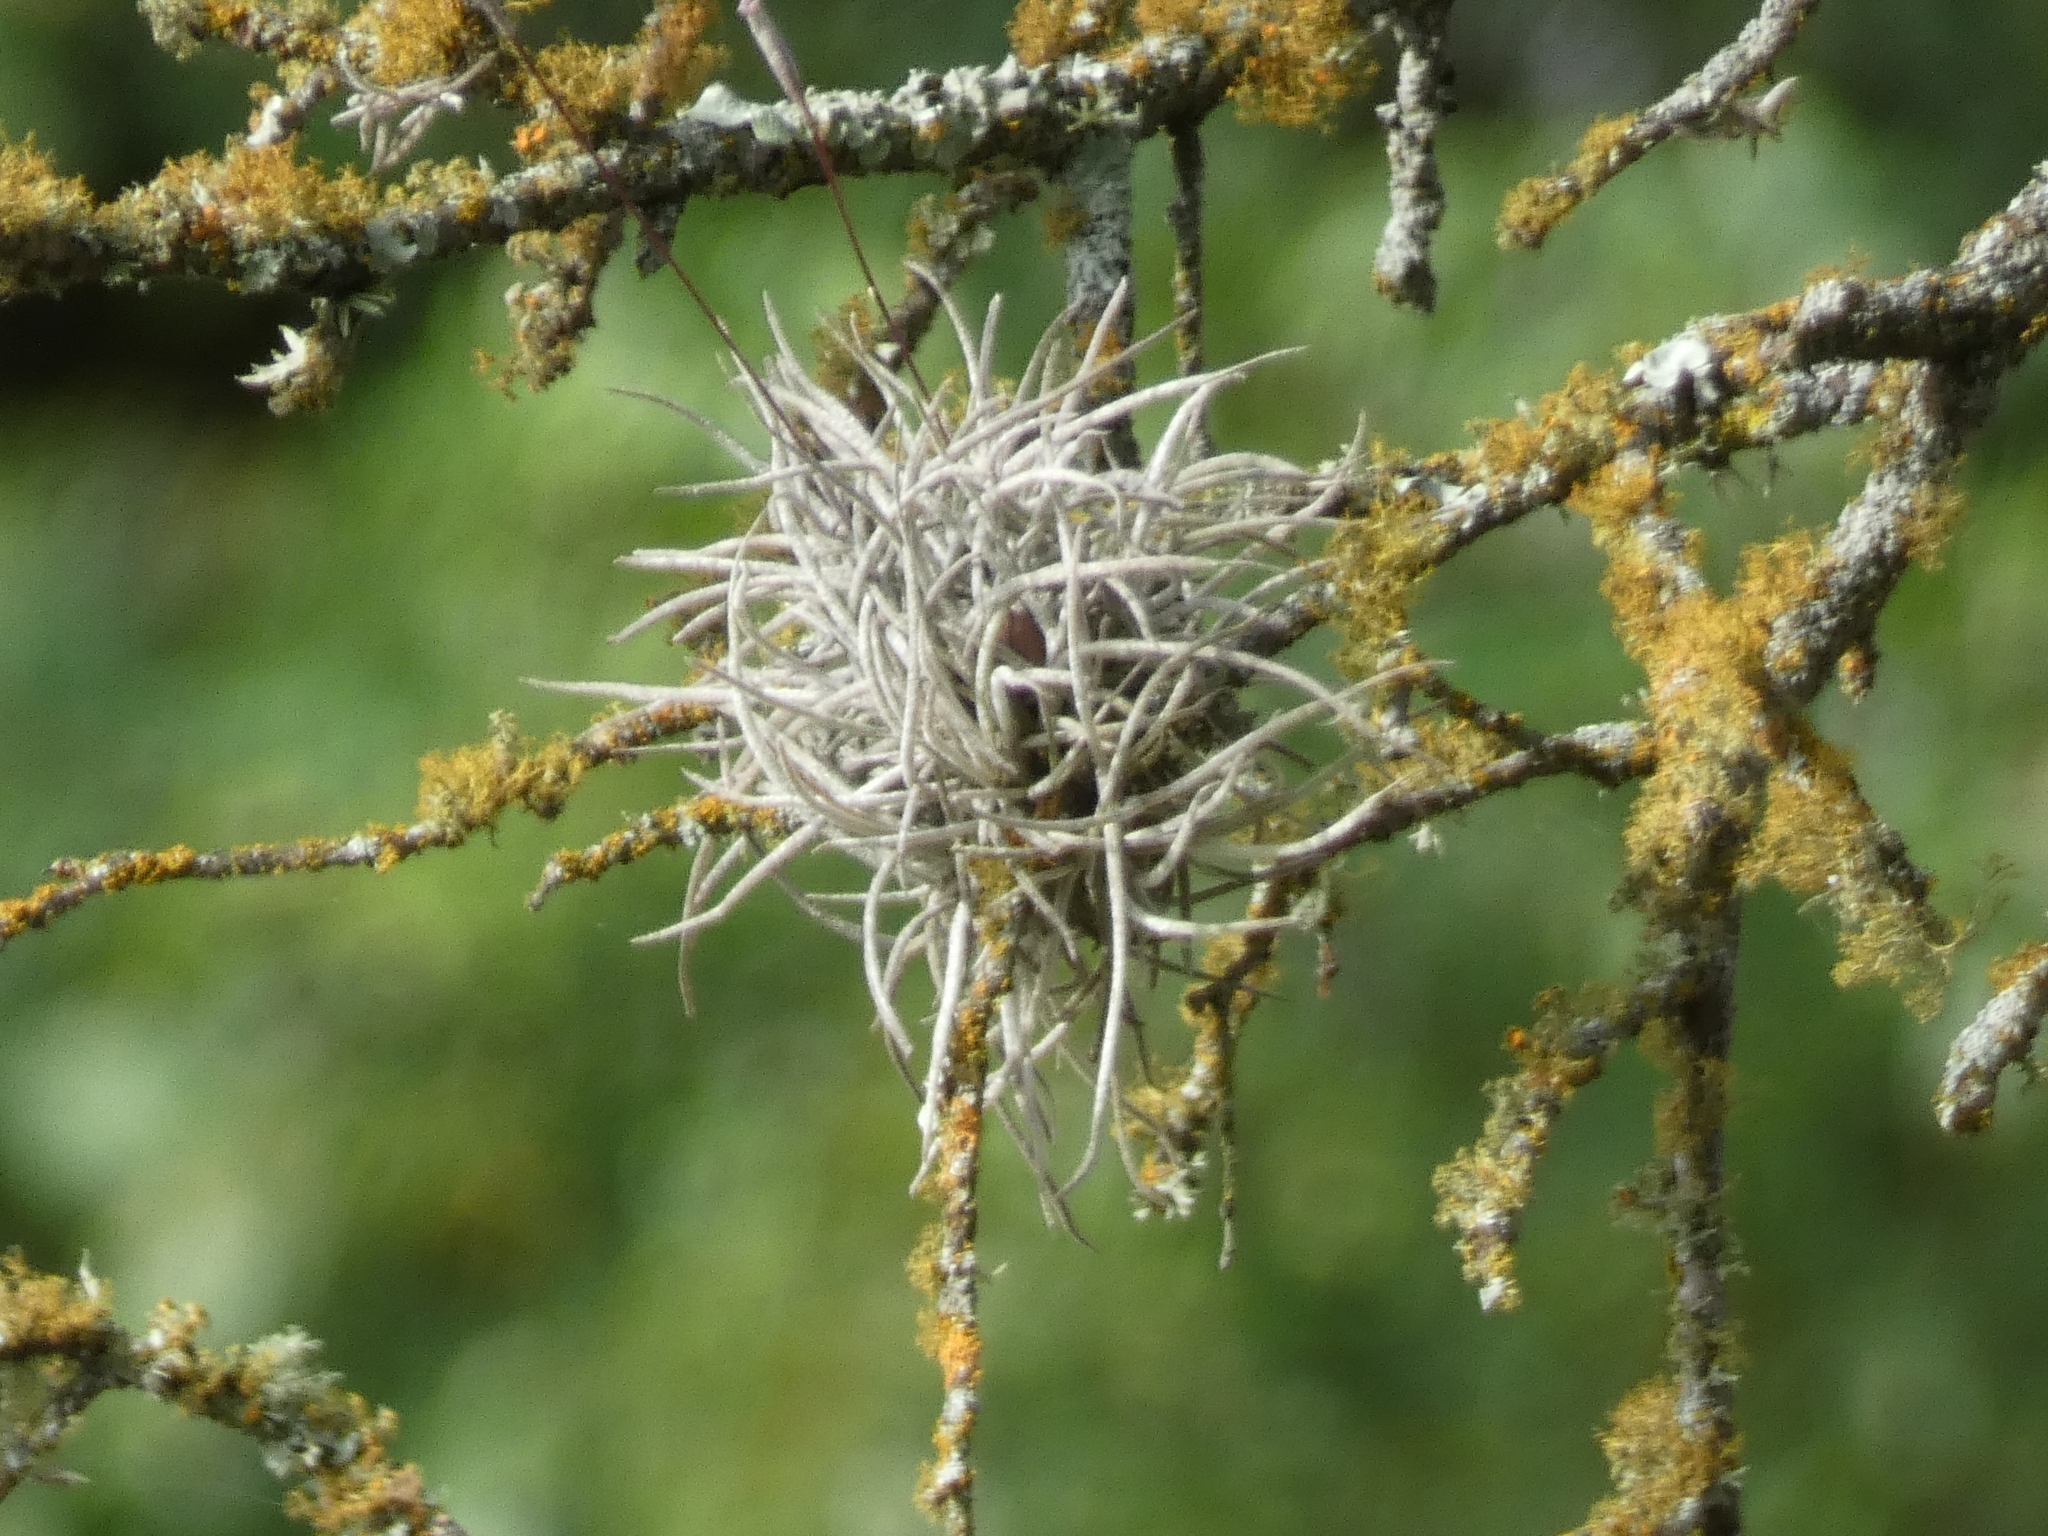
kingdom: Plantae
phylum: Tracheophyta
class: Liliopsida
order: Poales
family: Bromeliaceae
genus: Tillandsia
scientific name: Tillandsia recurvata
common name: Small ballmoss
